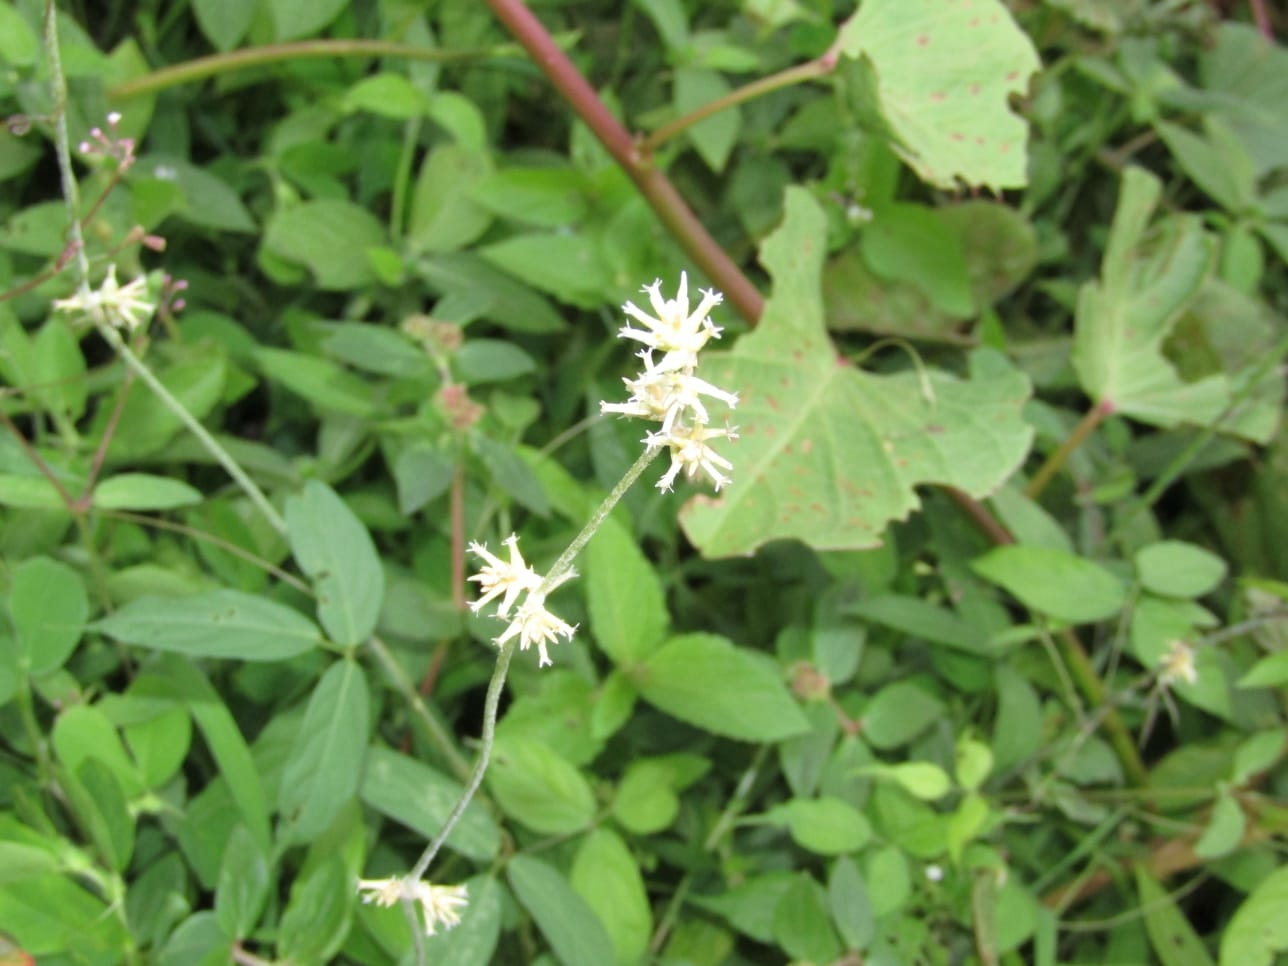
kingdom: Plantae
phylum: Tracheophyta
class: Magnoliopsida
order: Caryophyllales
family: Amaranthaceae
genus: Froelichia
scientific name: Froelichia humboldtiana
